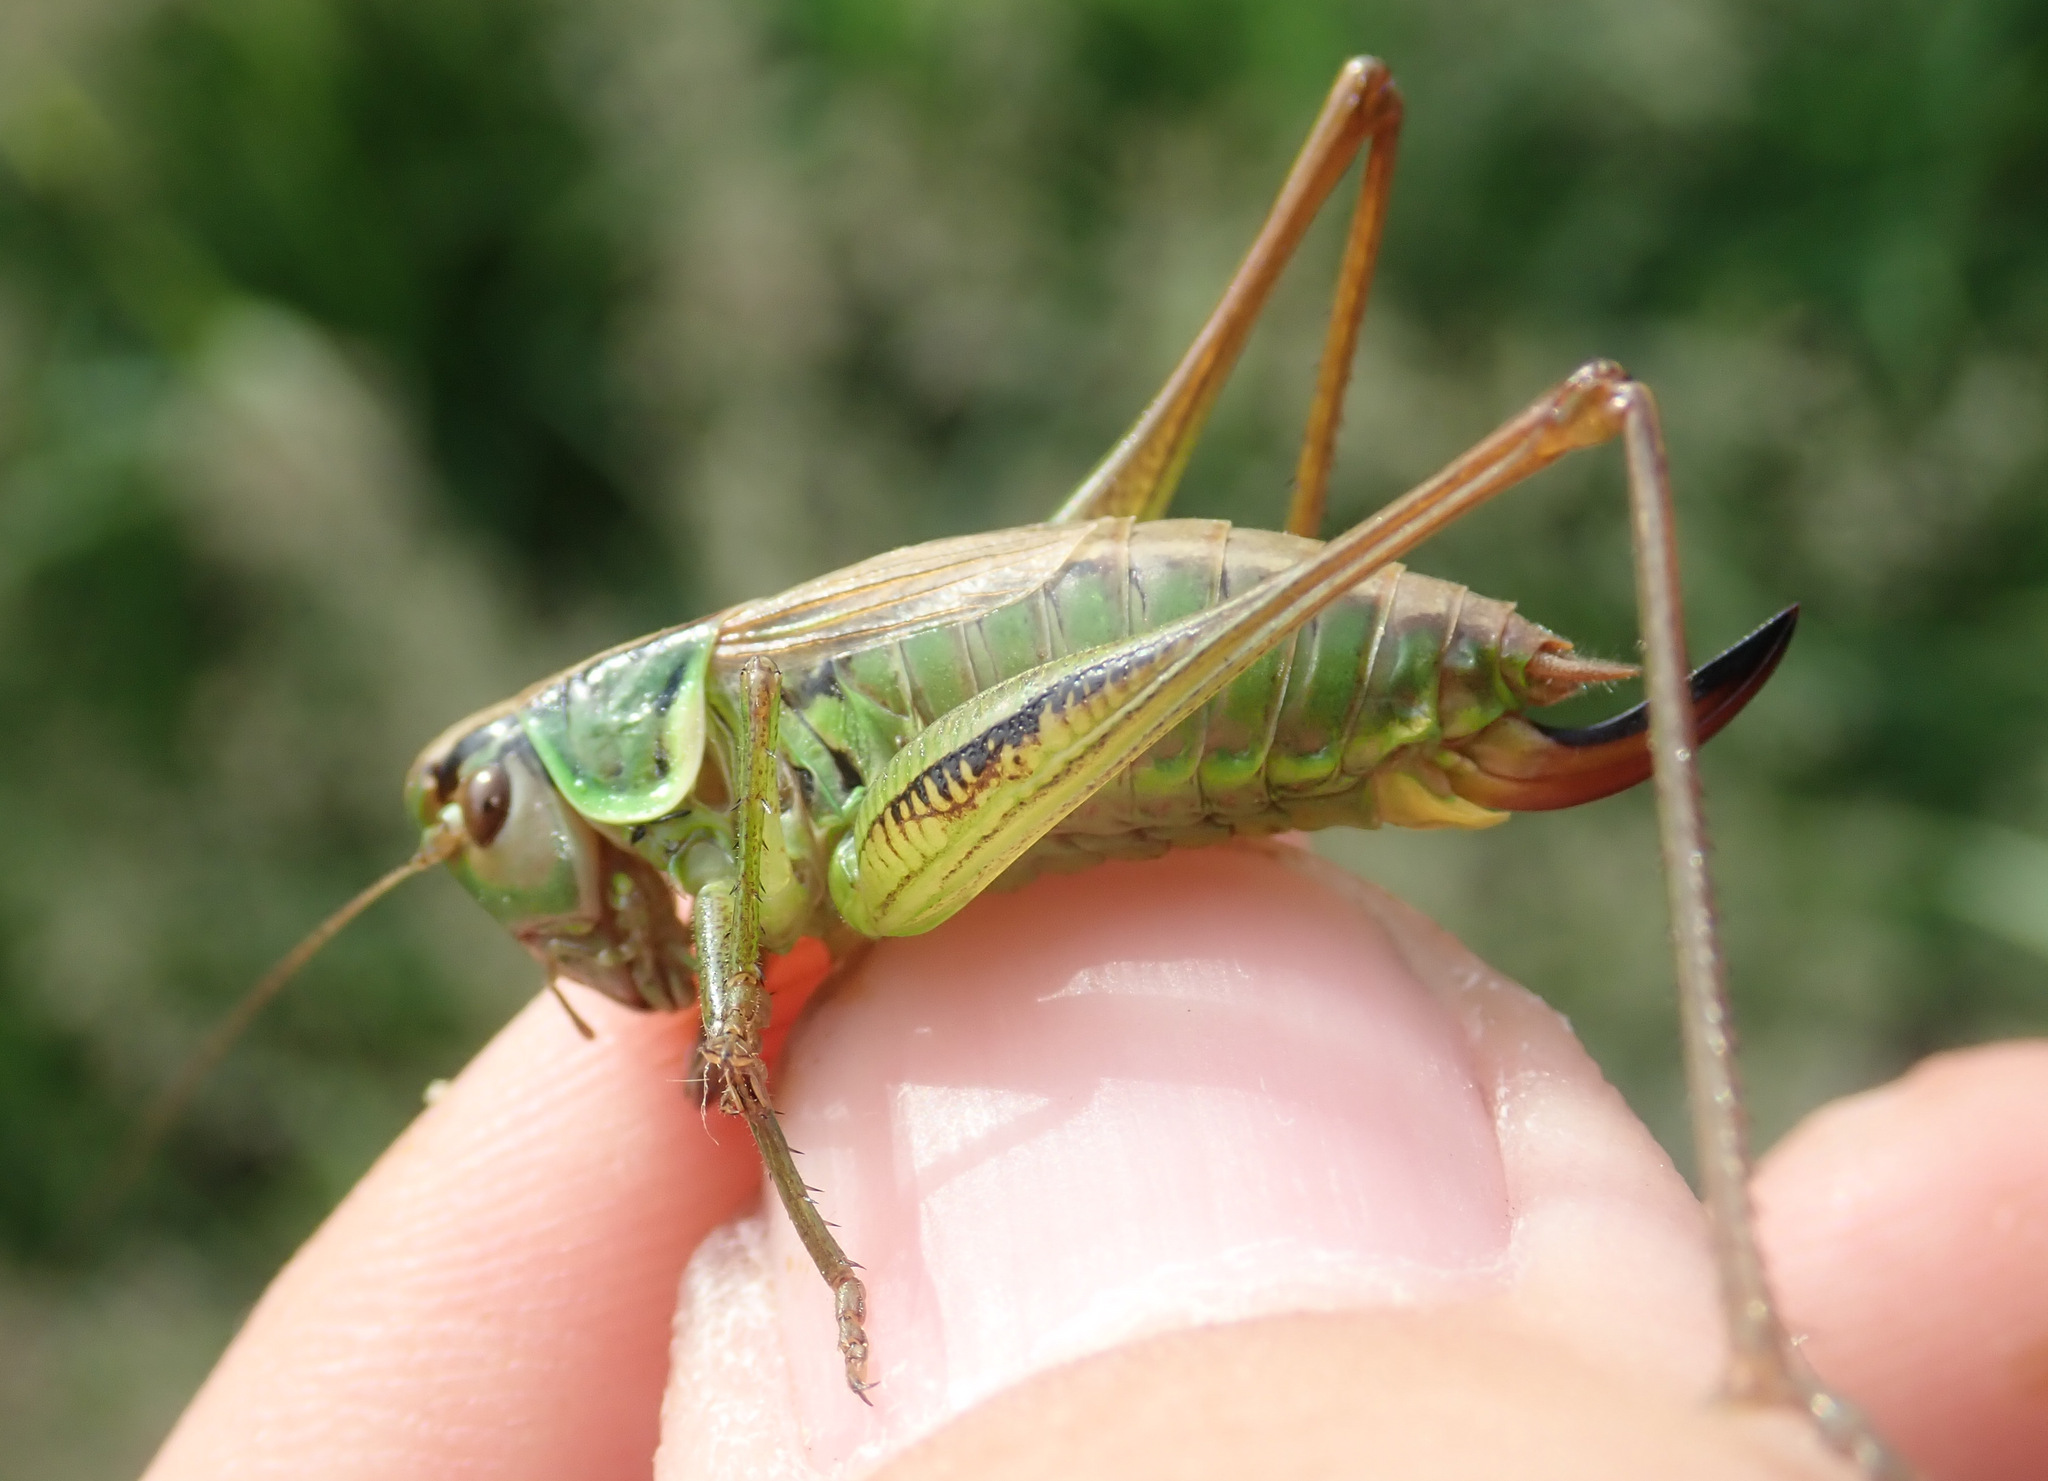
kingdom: Animalia
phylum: Arthropoda
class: Insecta
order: Orthoptera
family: Tettigoniidae
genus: Roeseliana
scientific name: Roeseliana roeselii
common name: Roesel's bush cricket
